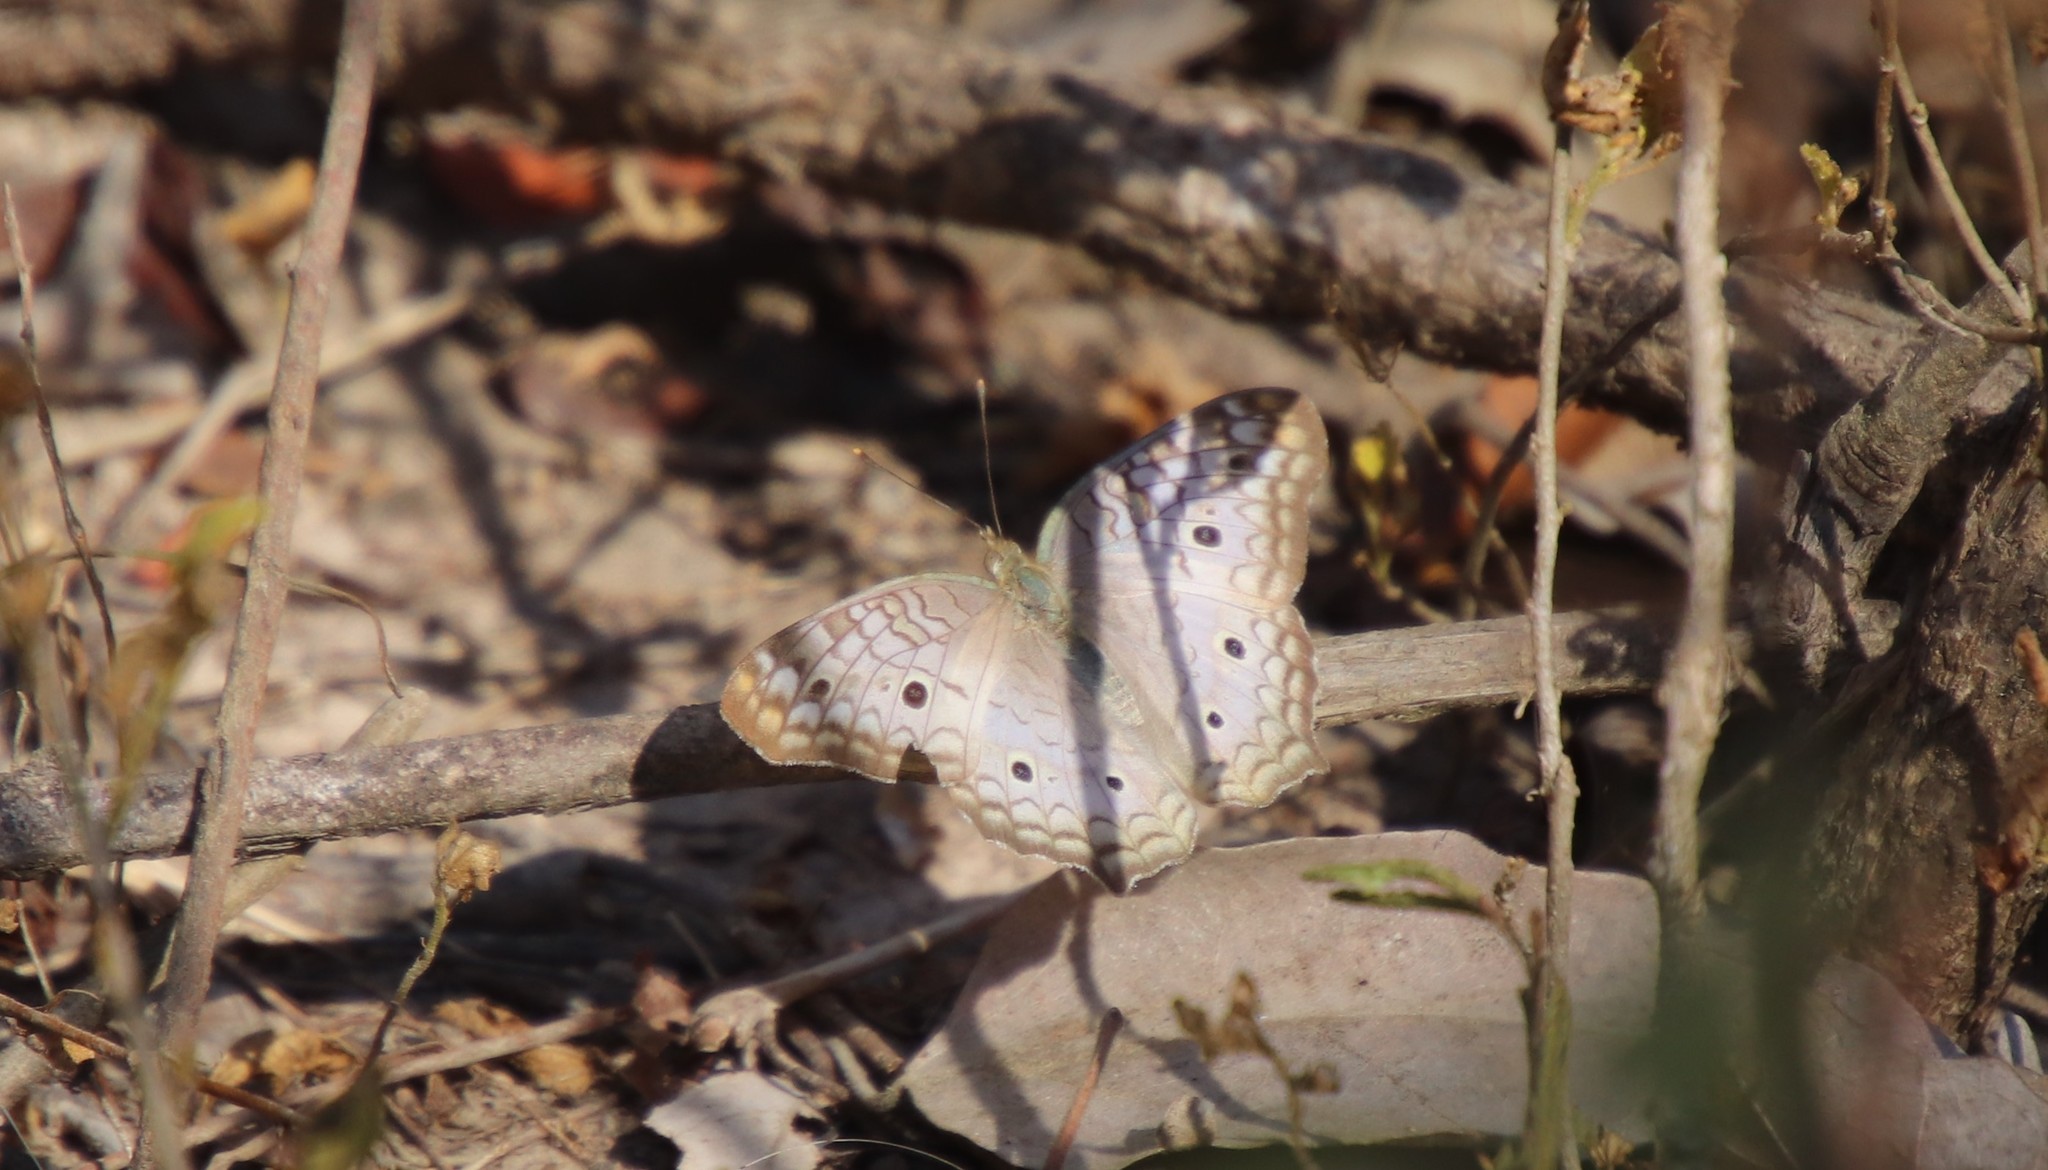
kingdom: Animalia
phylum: Arthropoda
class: Insecta
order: Lepidoptera
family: Nymphalidae
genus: Anartia
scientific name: Anartia jatrophae
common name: White peacock
